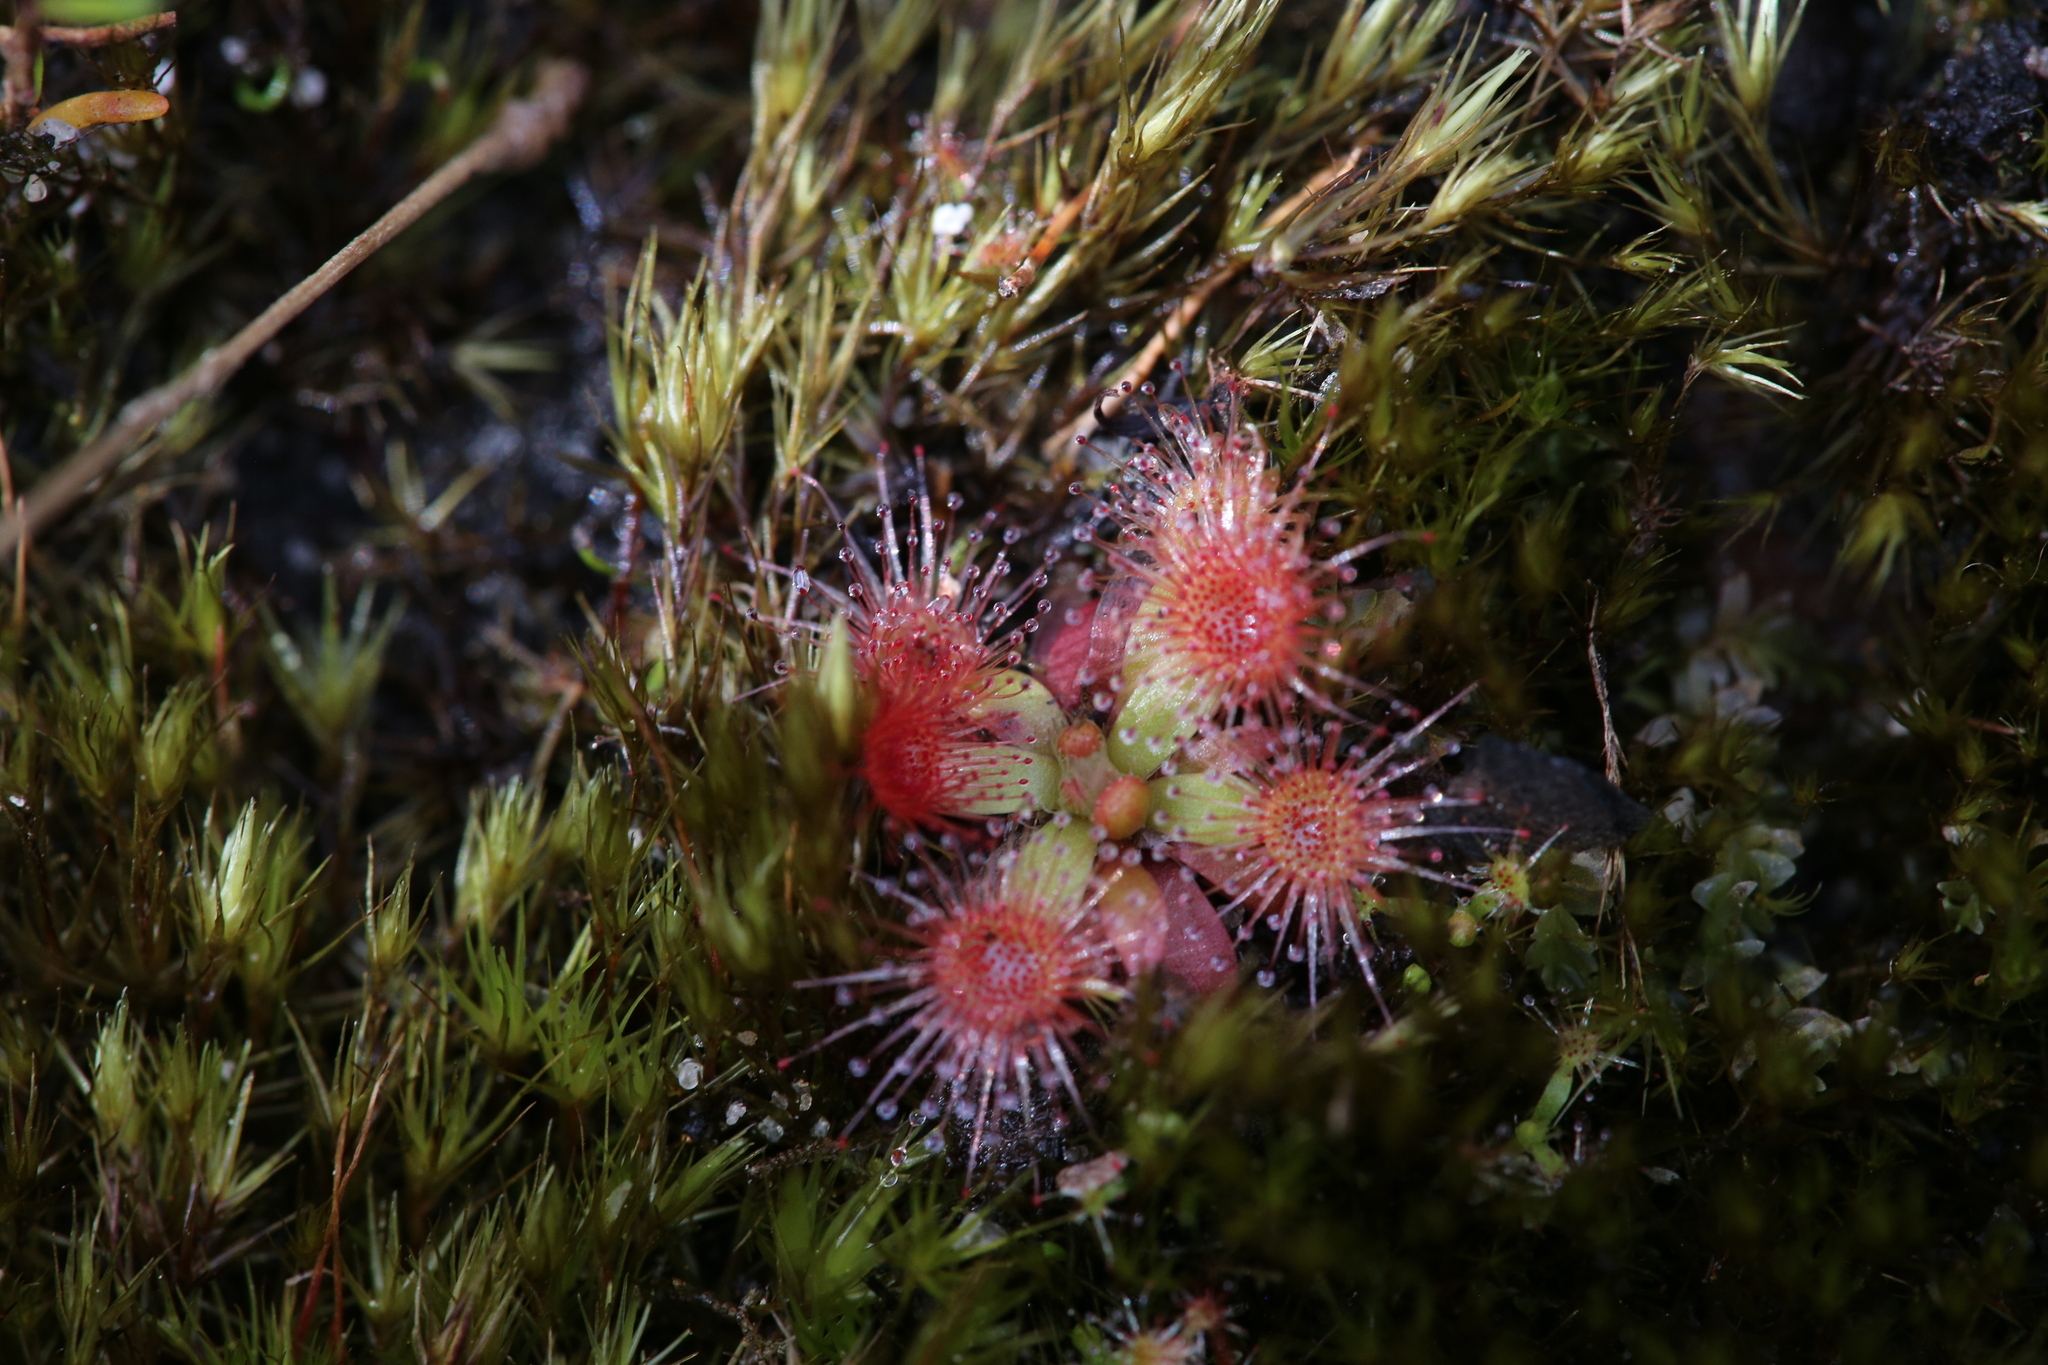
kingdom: Plantae
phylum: Tracheophyta
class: Magnoliopsida
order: Caryophyllales
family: Droseraceae
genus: Drosera
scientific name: Drosera pulchella
